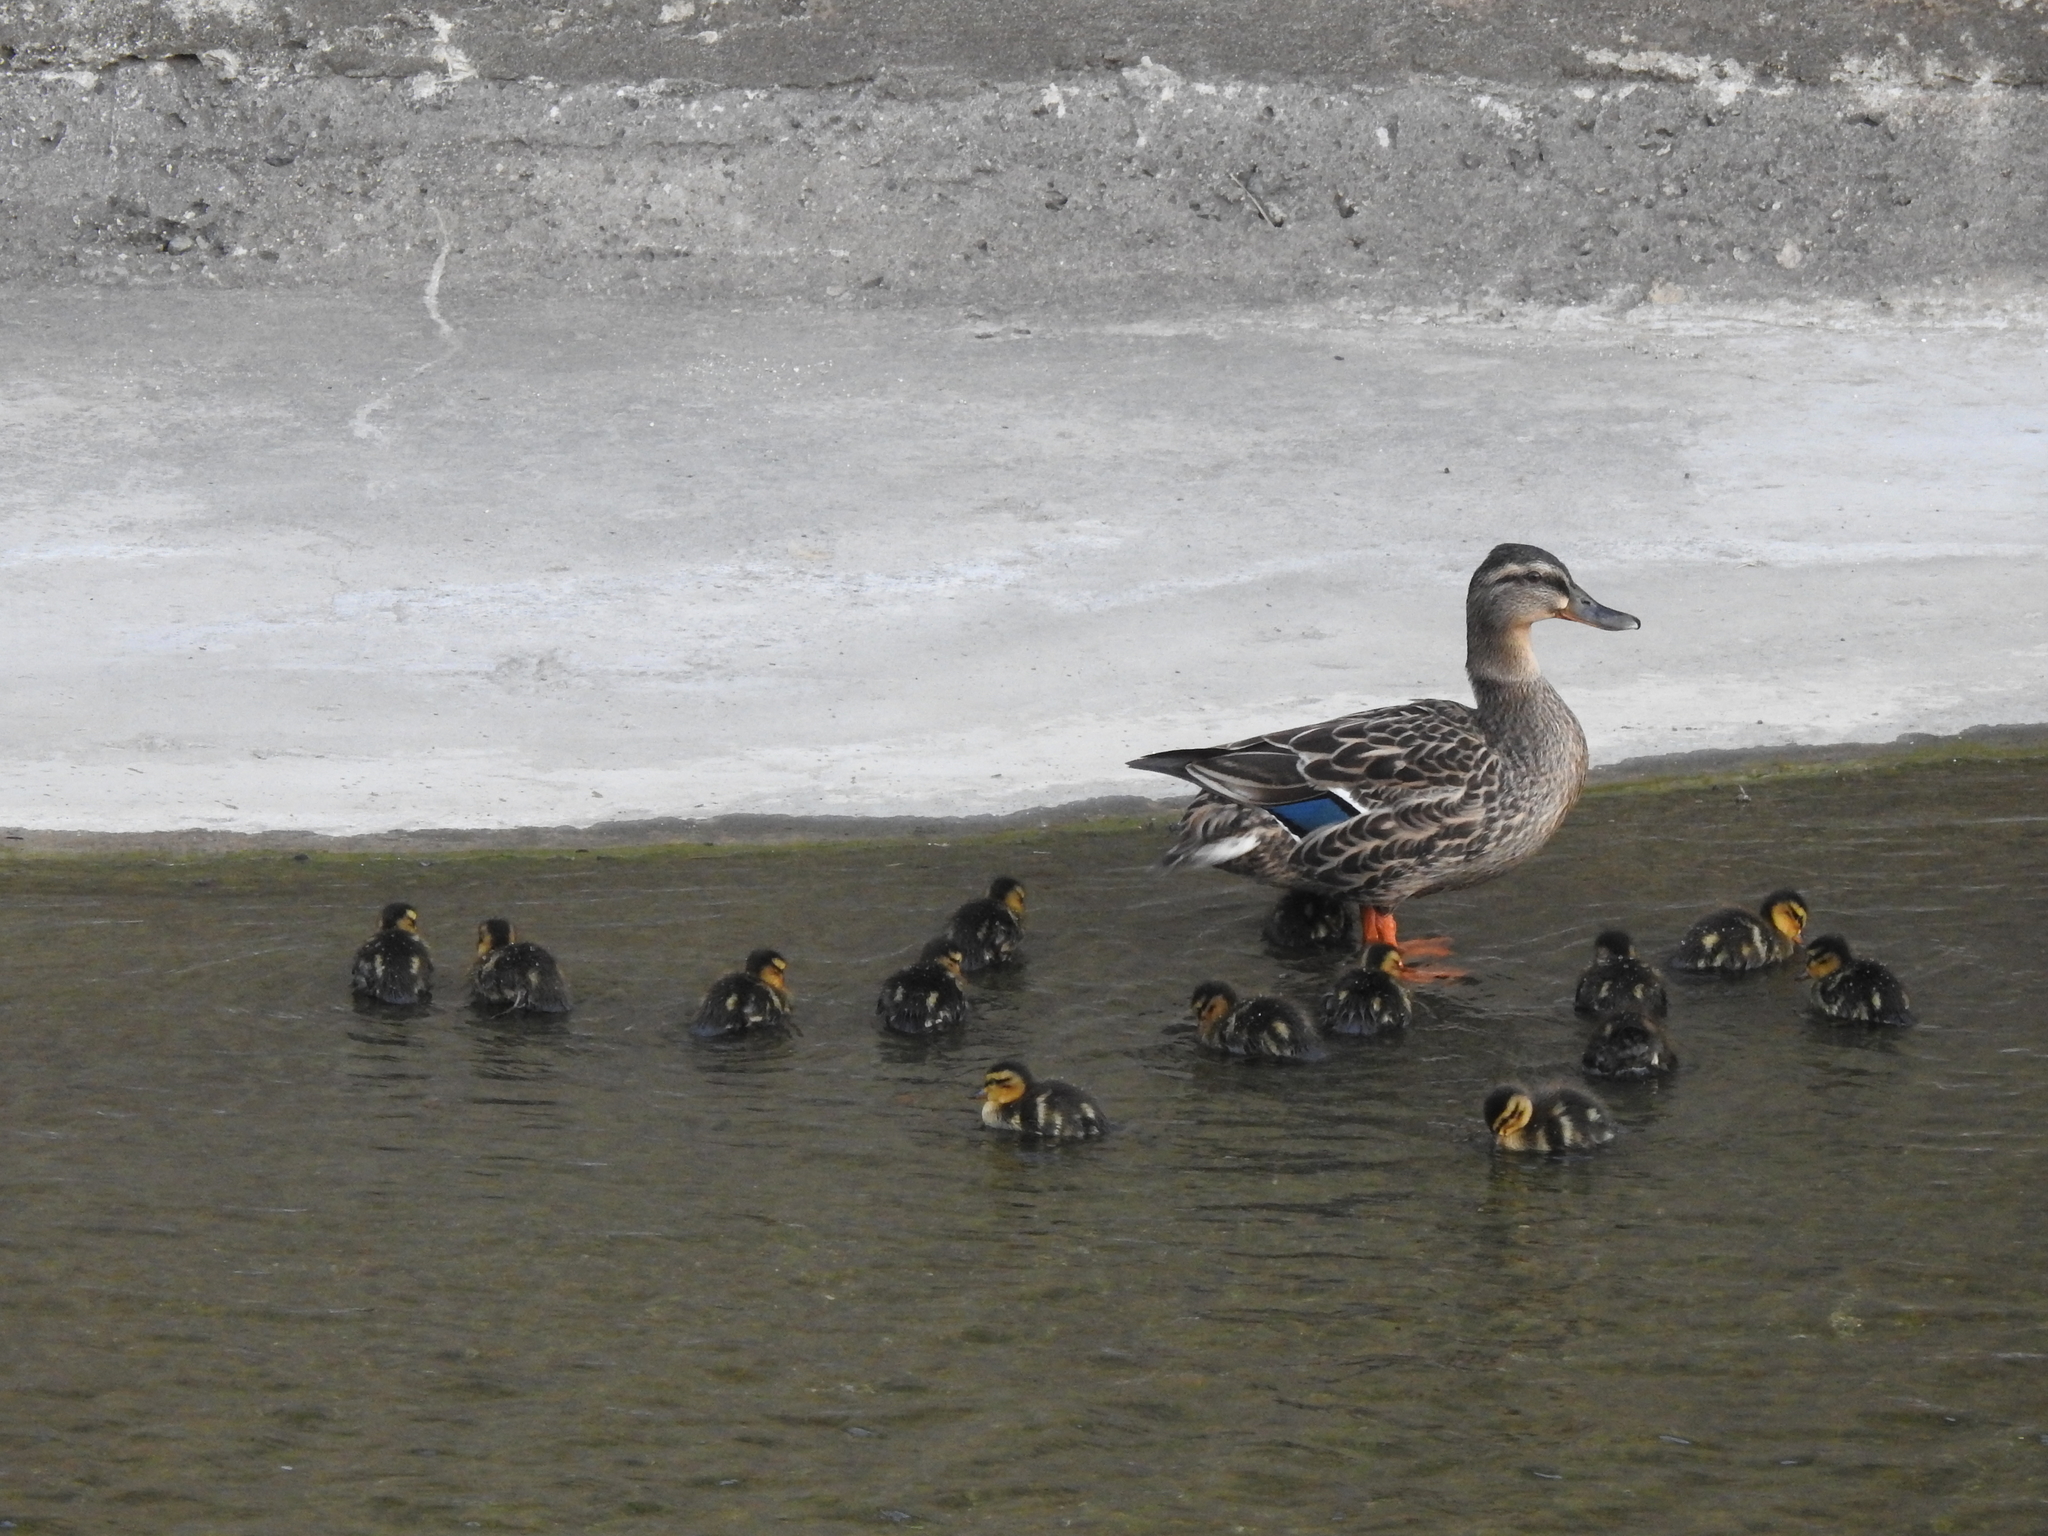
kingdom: Animalia
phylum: Chordata
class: Aves
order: Anseriformes
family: Anatidae
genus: Anas
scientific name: Anas platyrhynchos
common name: Mallard
